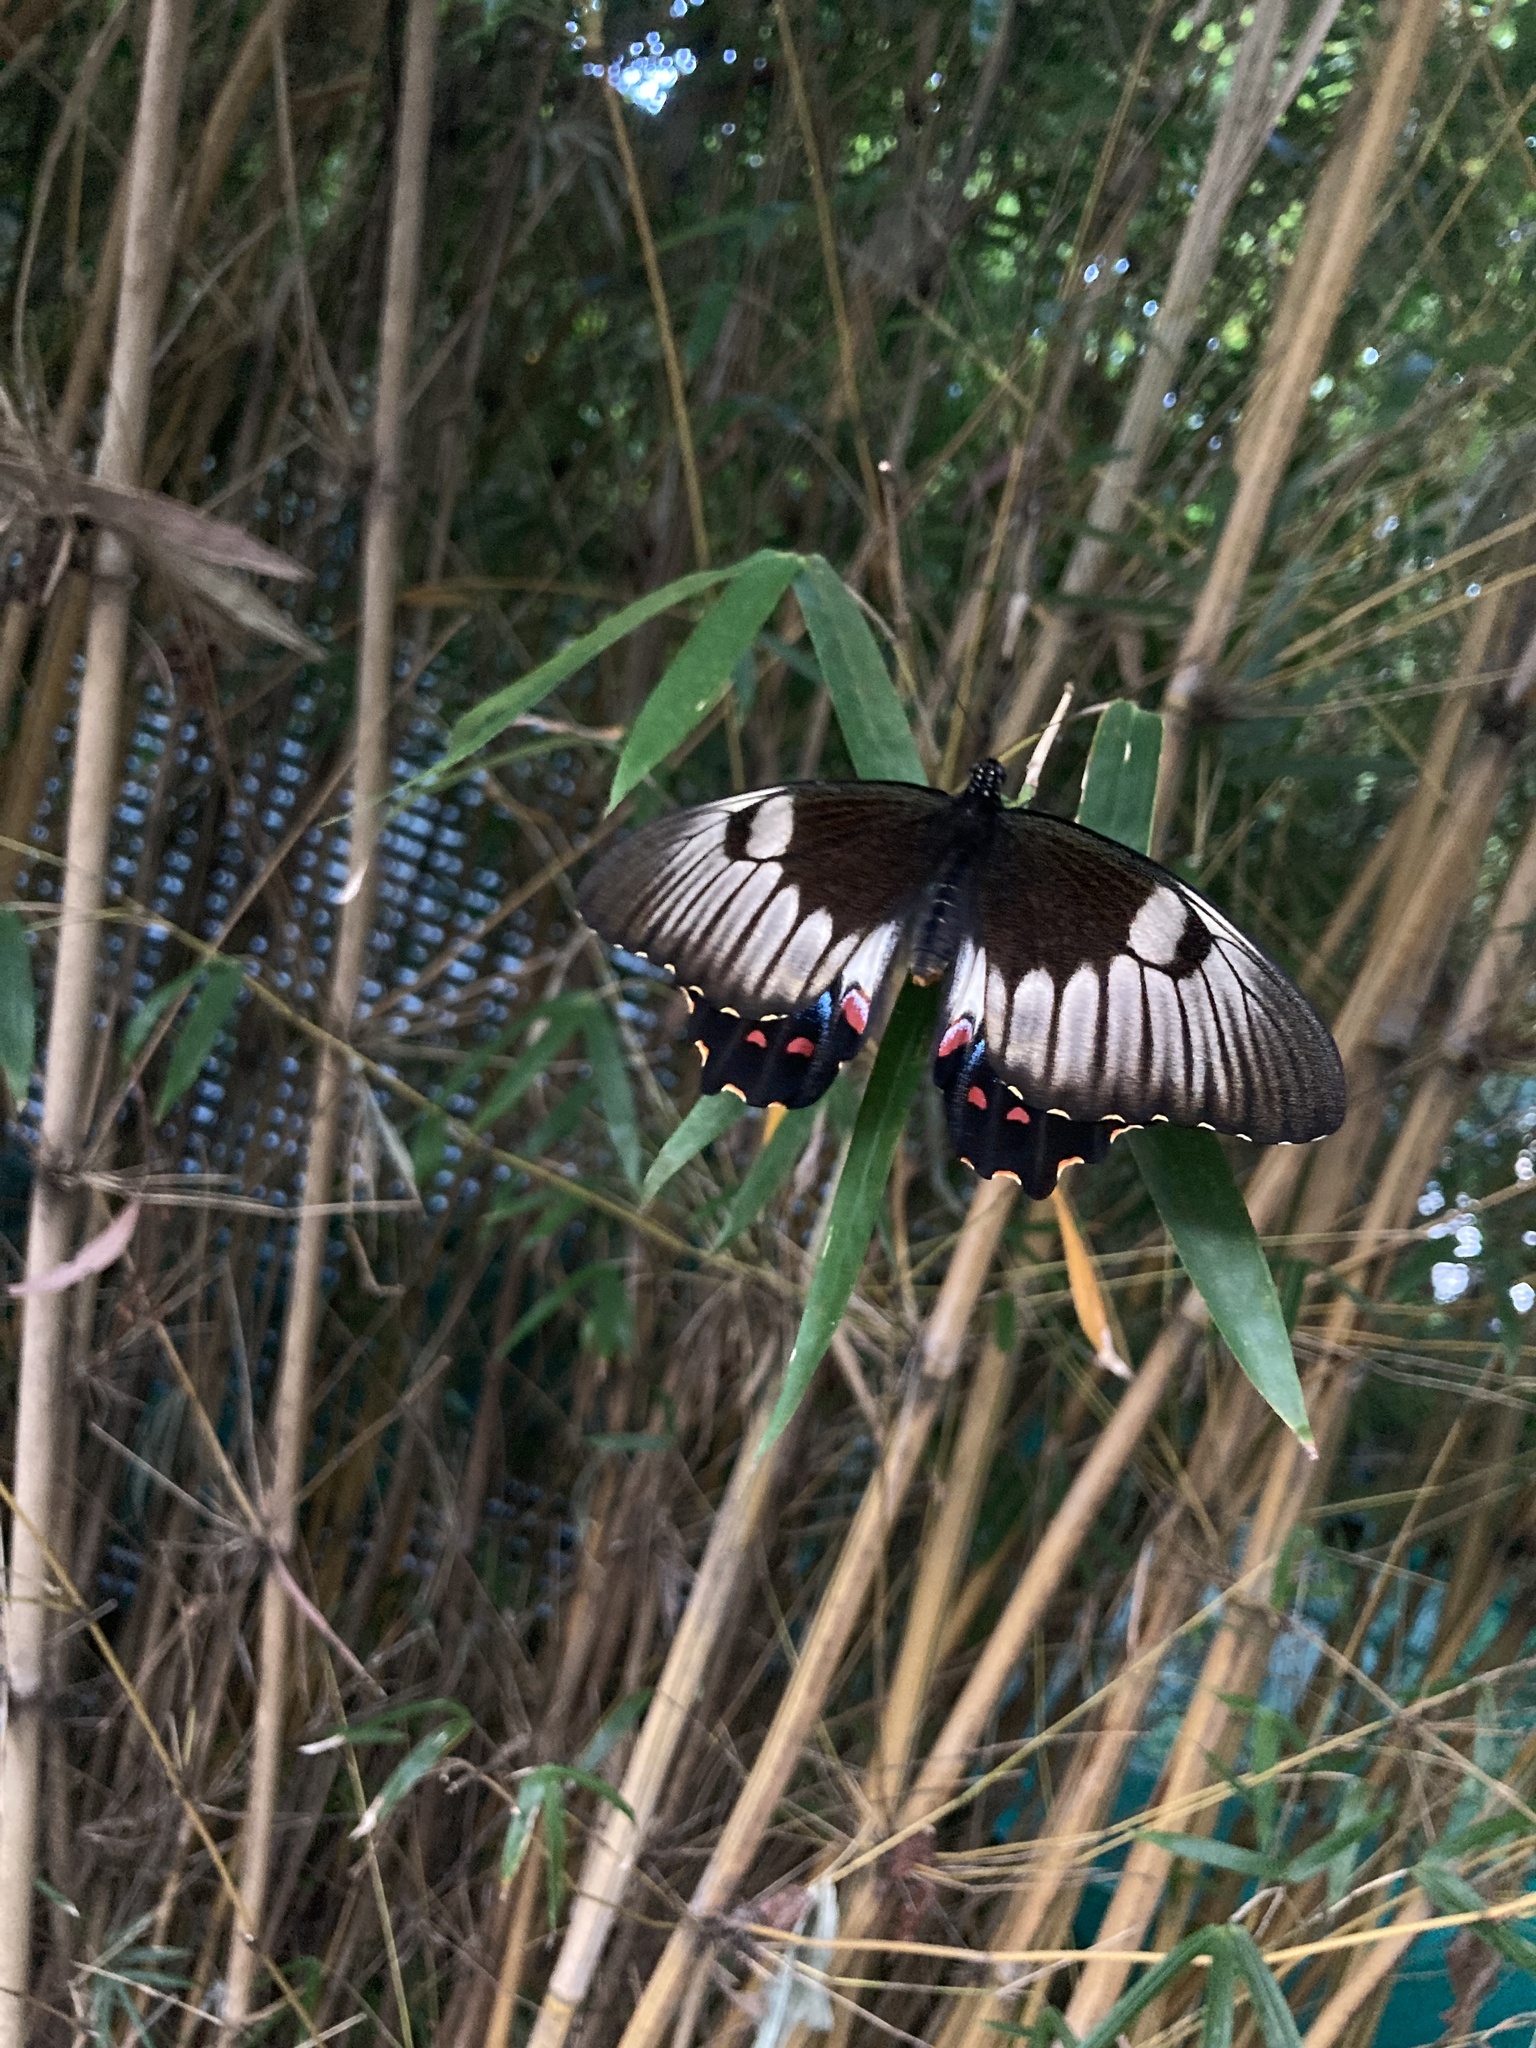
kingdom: Animalia
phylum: Arthropoda
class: Insecta
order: Lepidoptera
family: Papilionidae
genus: Papilio
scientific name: Papilio aegeus
